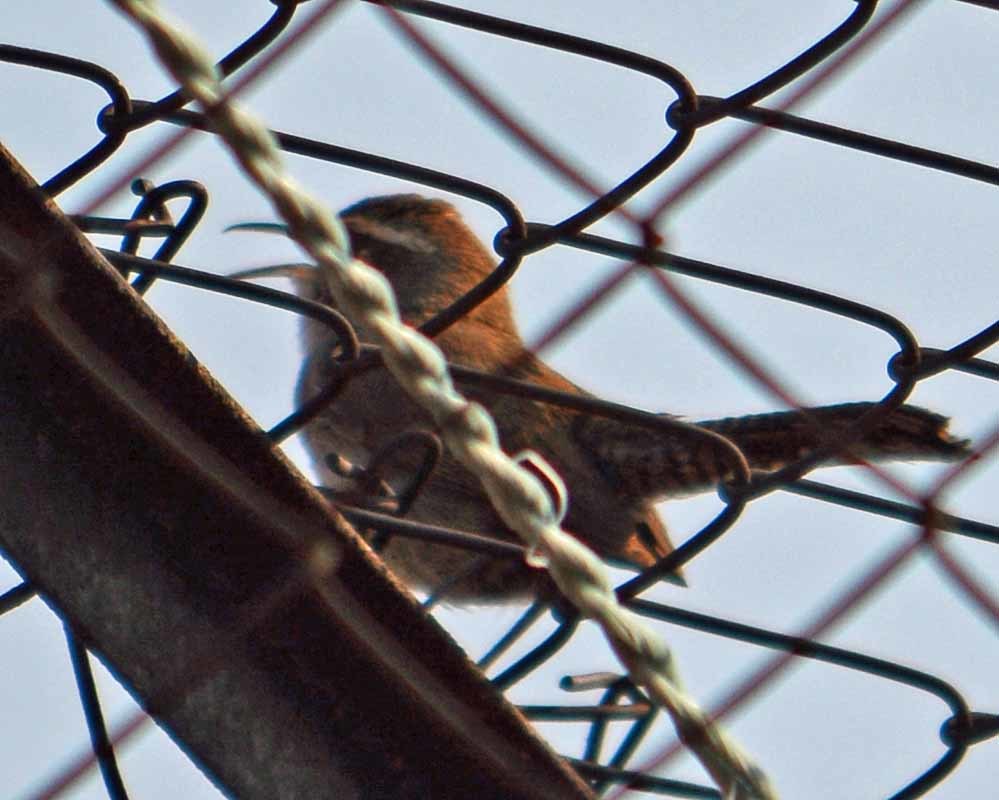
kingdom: Animalia
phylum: Chordata
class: Aves
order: Passeriformes
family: Troglodytidae
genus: Thryomanes
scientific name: Thryomanes bewickii
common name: Bewick's wren
